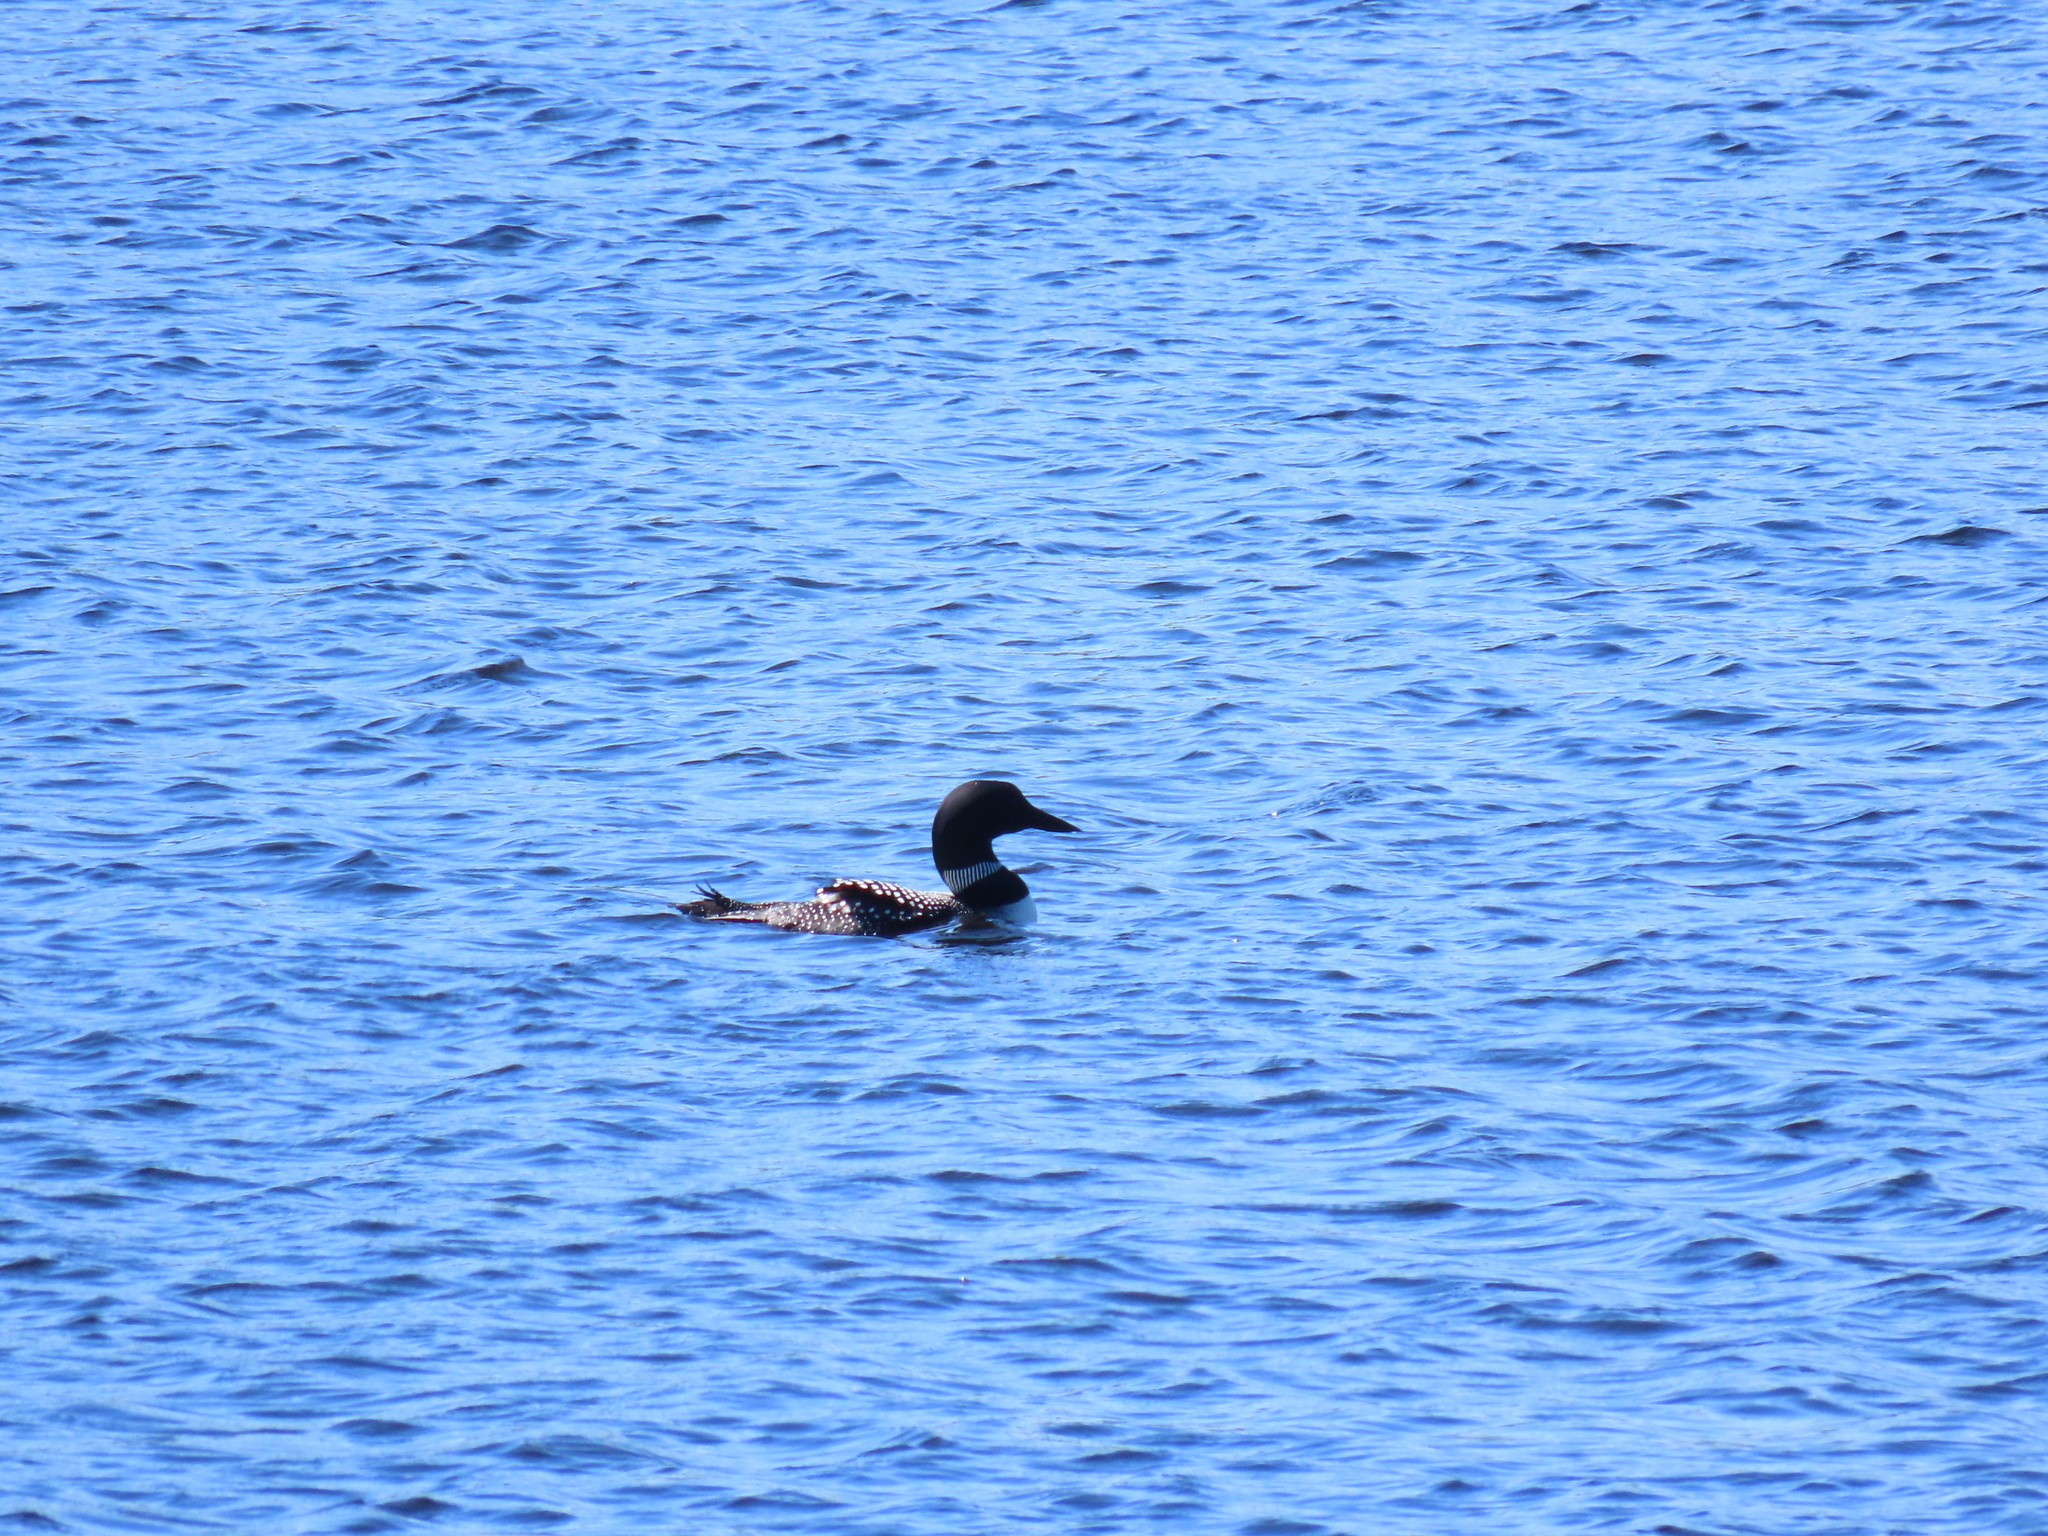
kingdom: Animalia
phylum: Chordata
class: Aves
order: Gaviiformes
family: Gaviidae
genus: Gavia
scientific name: Gavia immer
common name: Common loon
